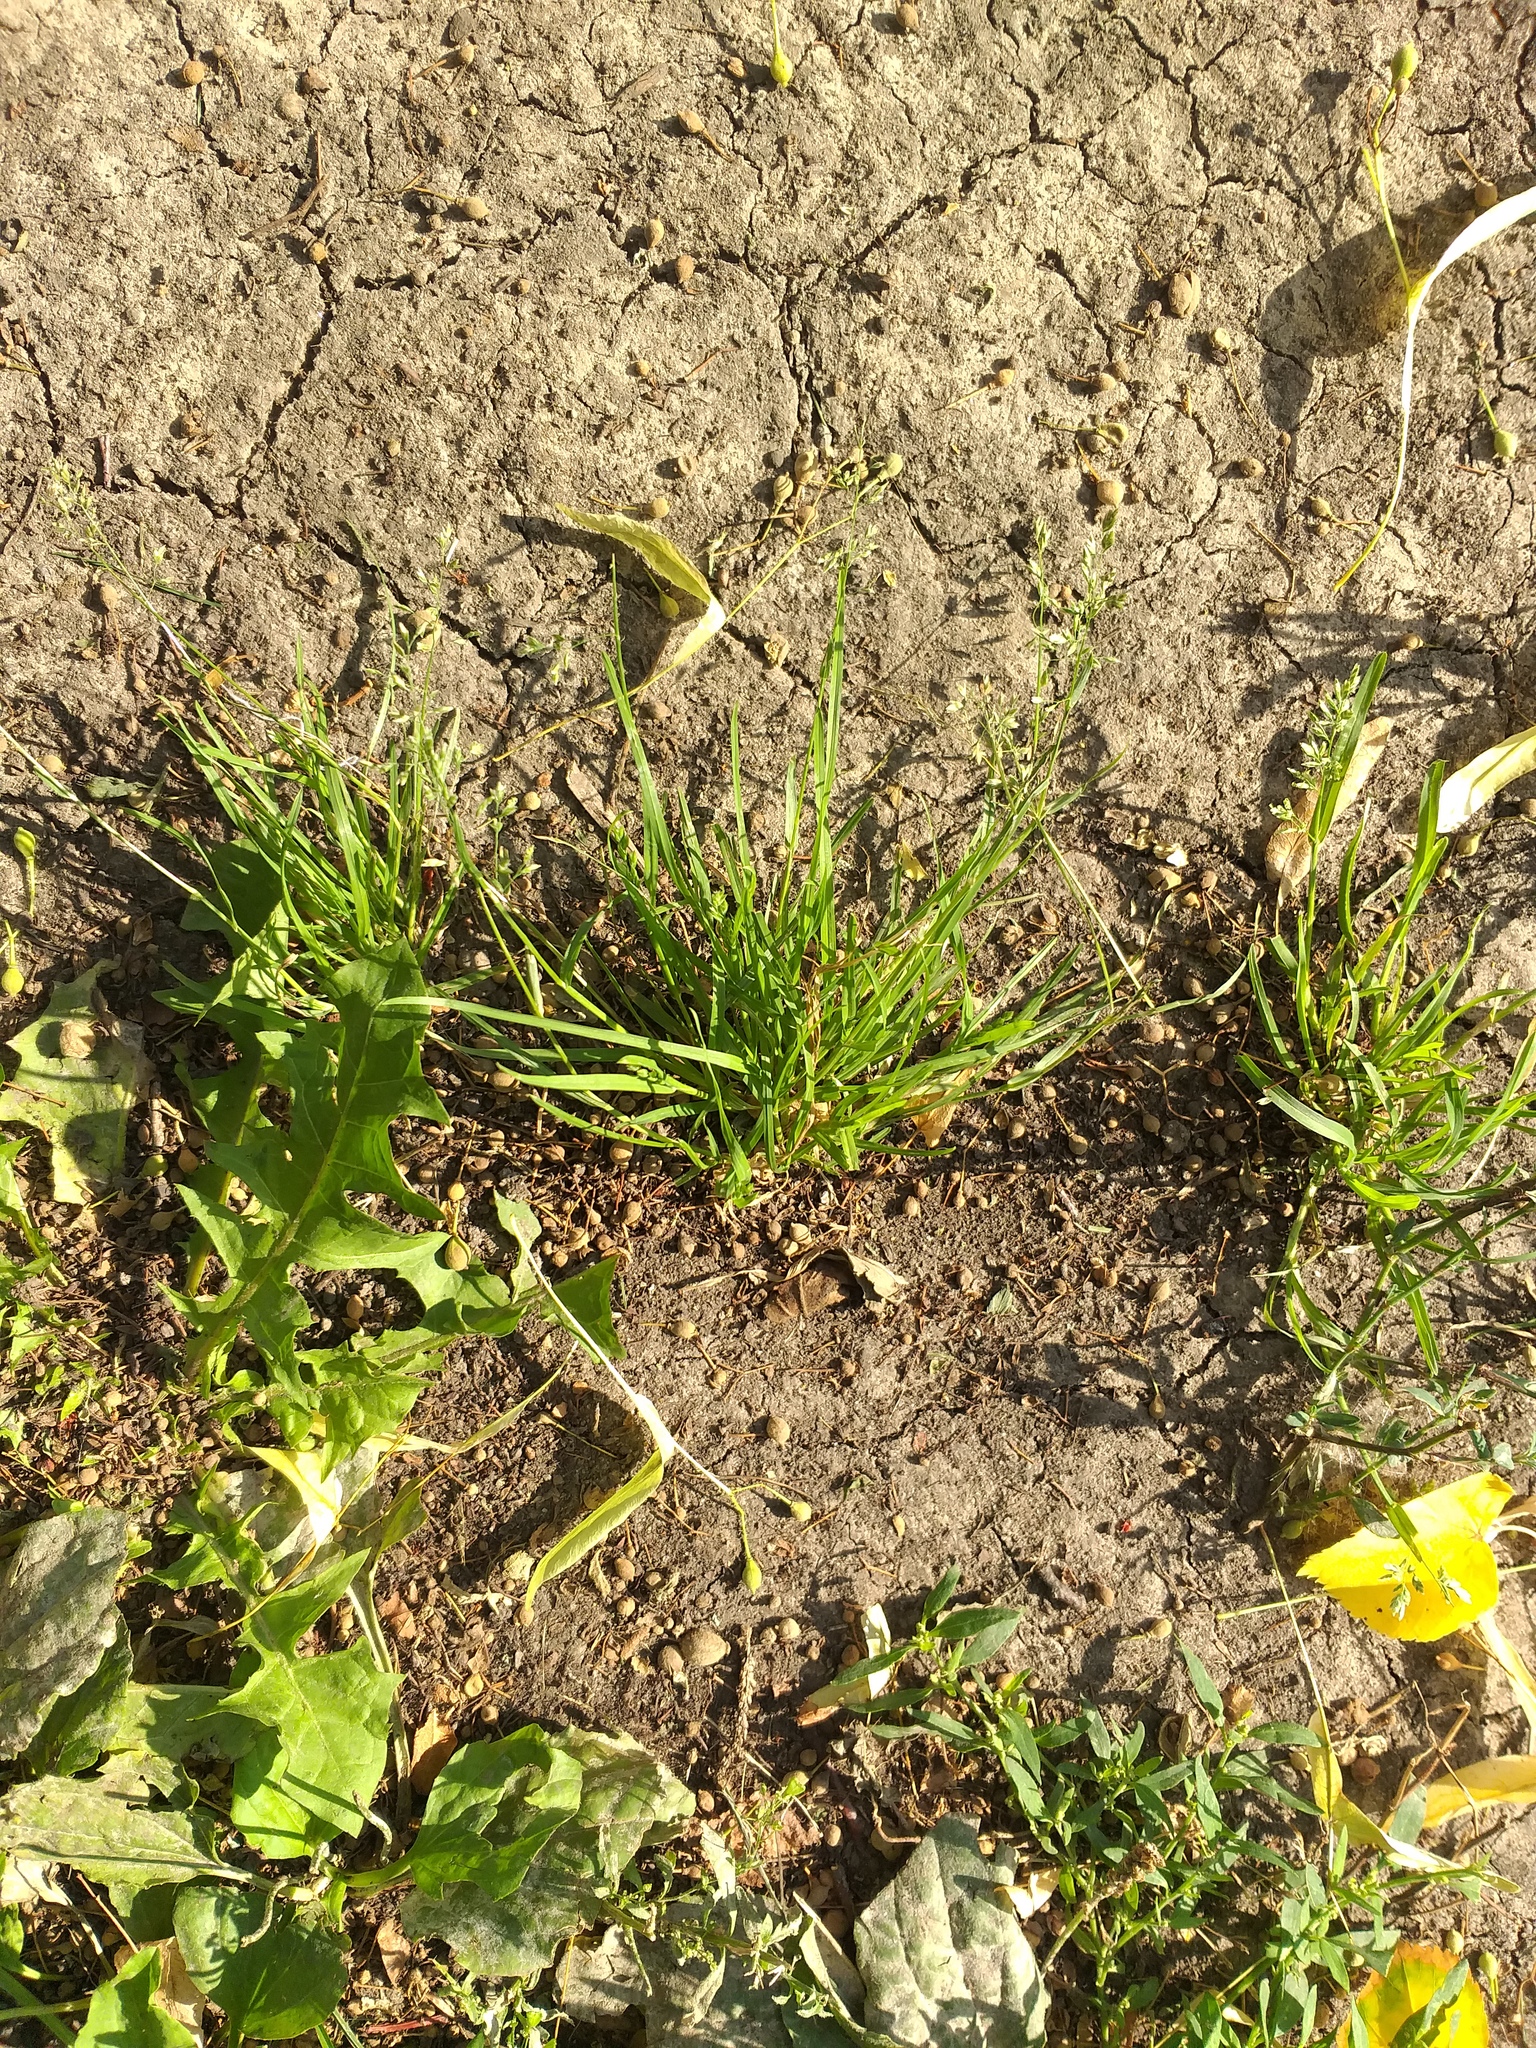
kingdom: Plantae
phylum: Tracheophyta
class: Liliopsida
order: Poales
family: Poaceae
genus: Poa
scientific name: Poa annua
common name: Annual bluegrass
